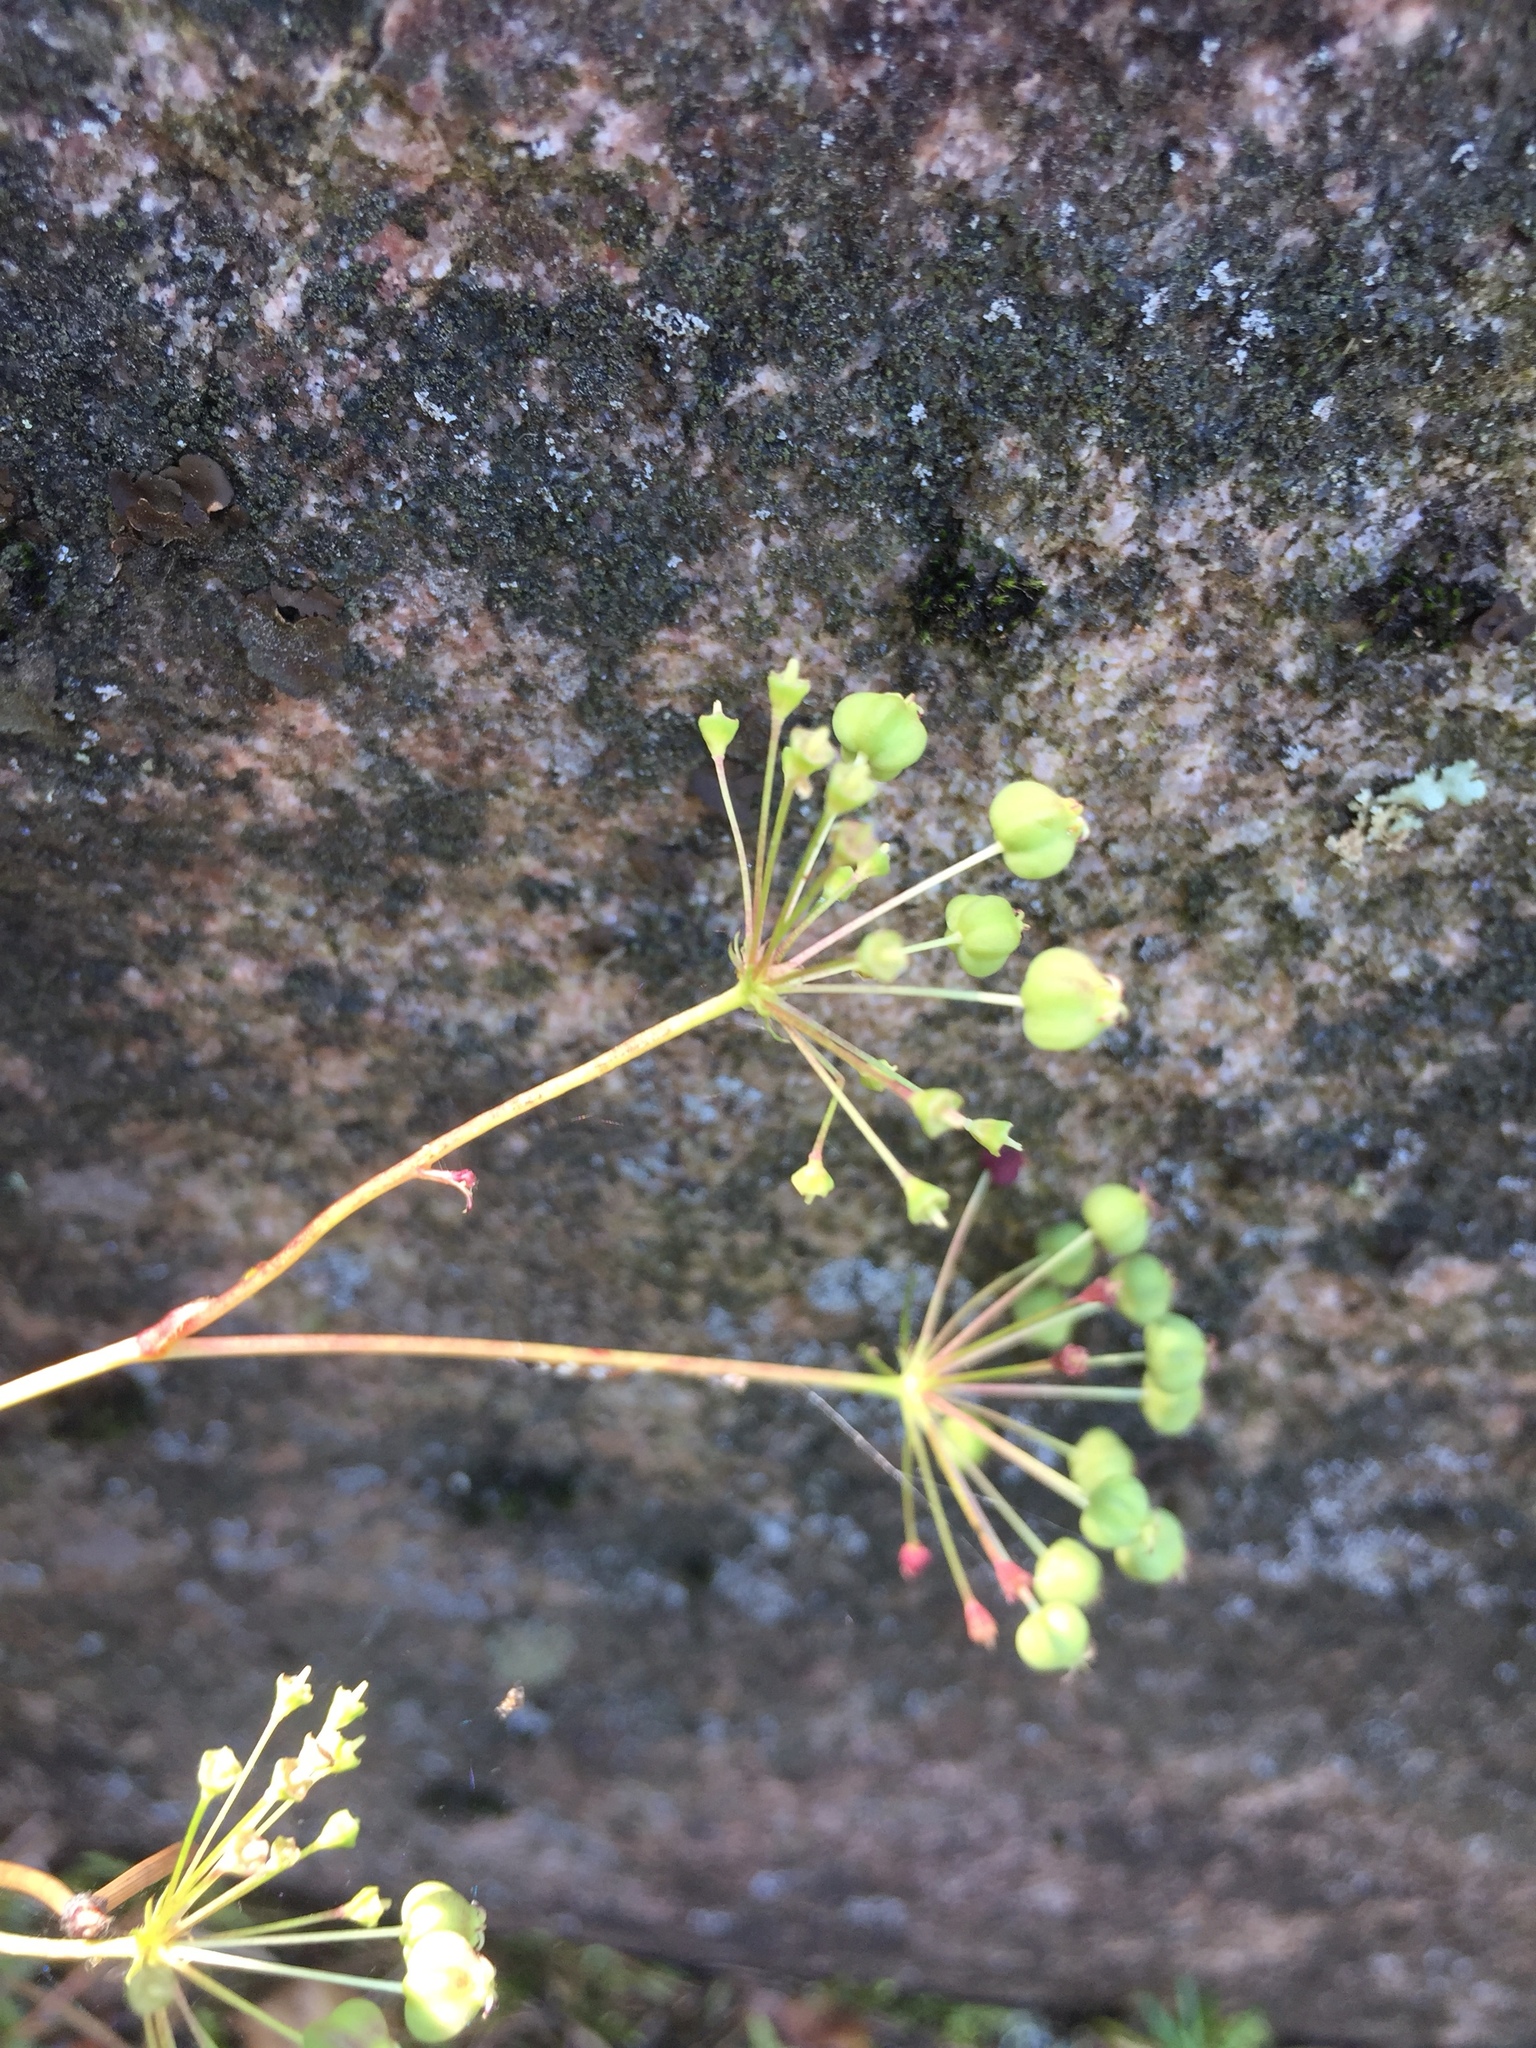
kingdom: Plantae
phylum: Tracheophyta
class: Magnoliopsida
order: Apiales
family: Araliaceae
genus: Aralia
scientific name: Aralia hispida
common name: Bristly sarsaparilla
